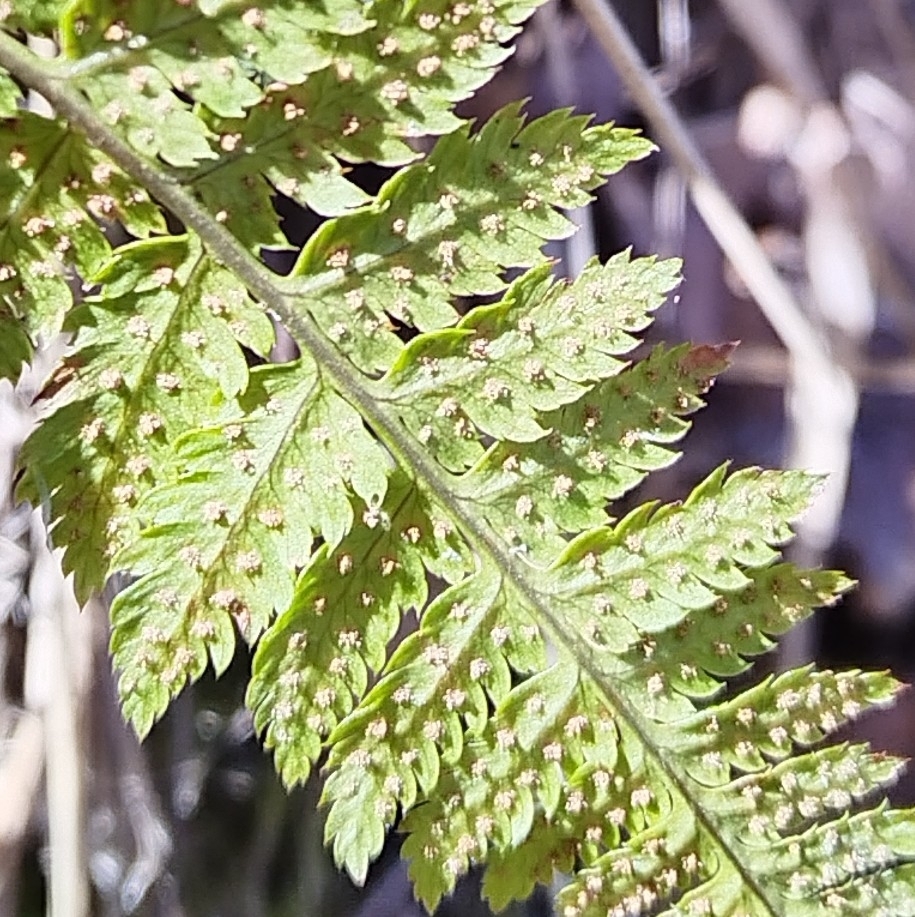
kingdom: Plantae
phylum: Tracheophyta
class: Polypodiopsida
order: Polypodiales
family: Dryopteridaceae
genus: Dryopteris
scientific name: Dryopteris carthusiana
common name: Narrow buckler-fern
